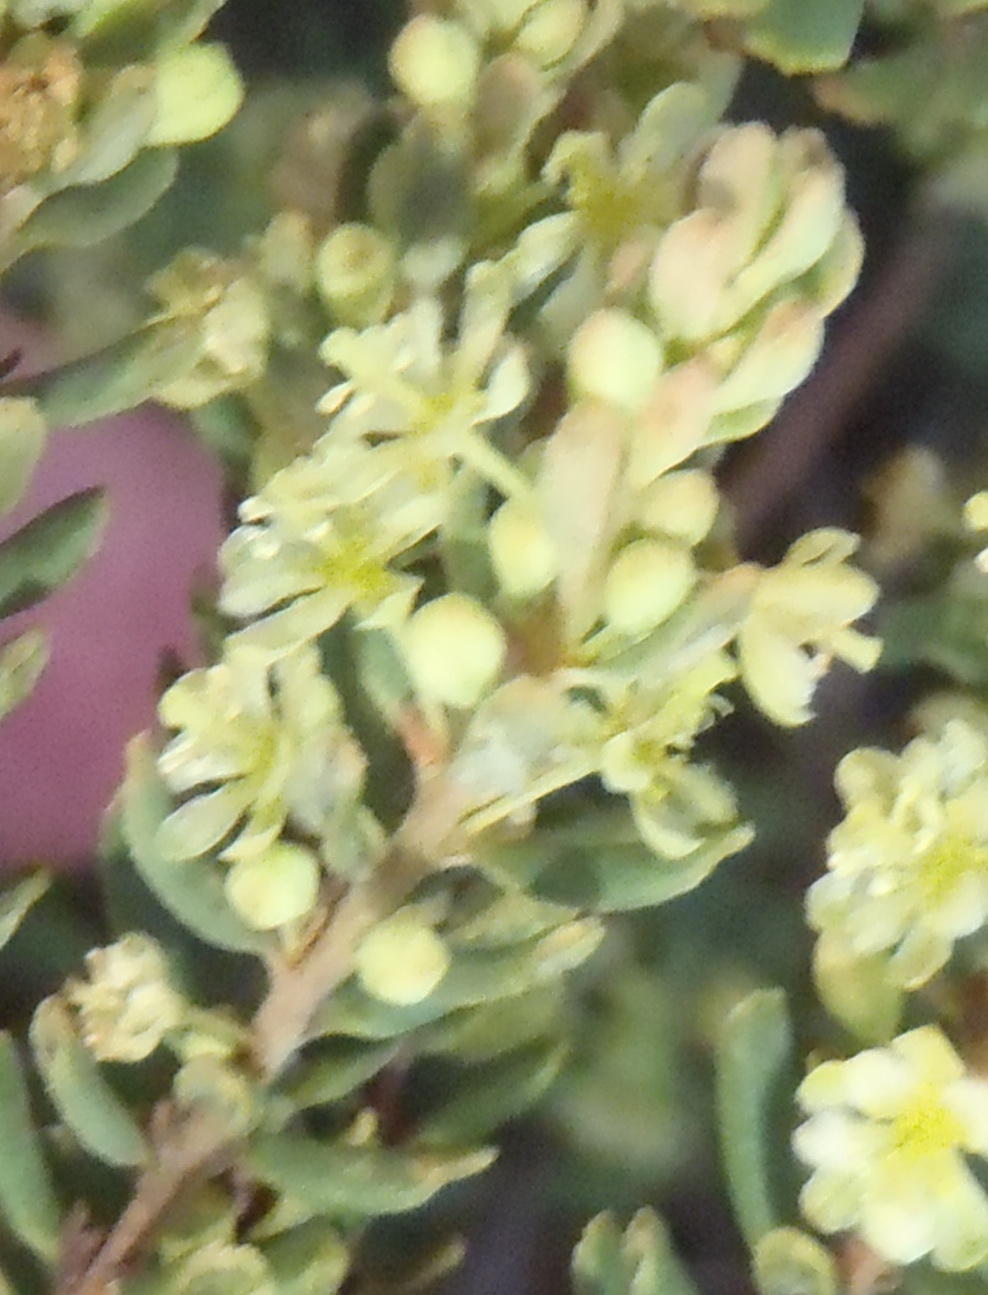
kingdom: Plantae
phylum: Tracheophyta
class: Magnoliopsida
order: Malpighiales
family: Peraceae
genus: Clutia
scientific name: Clutia laxa
